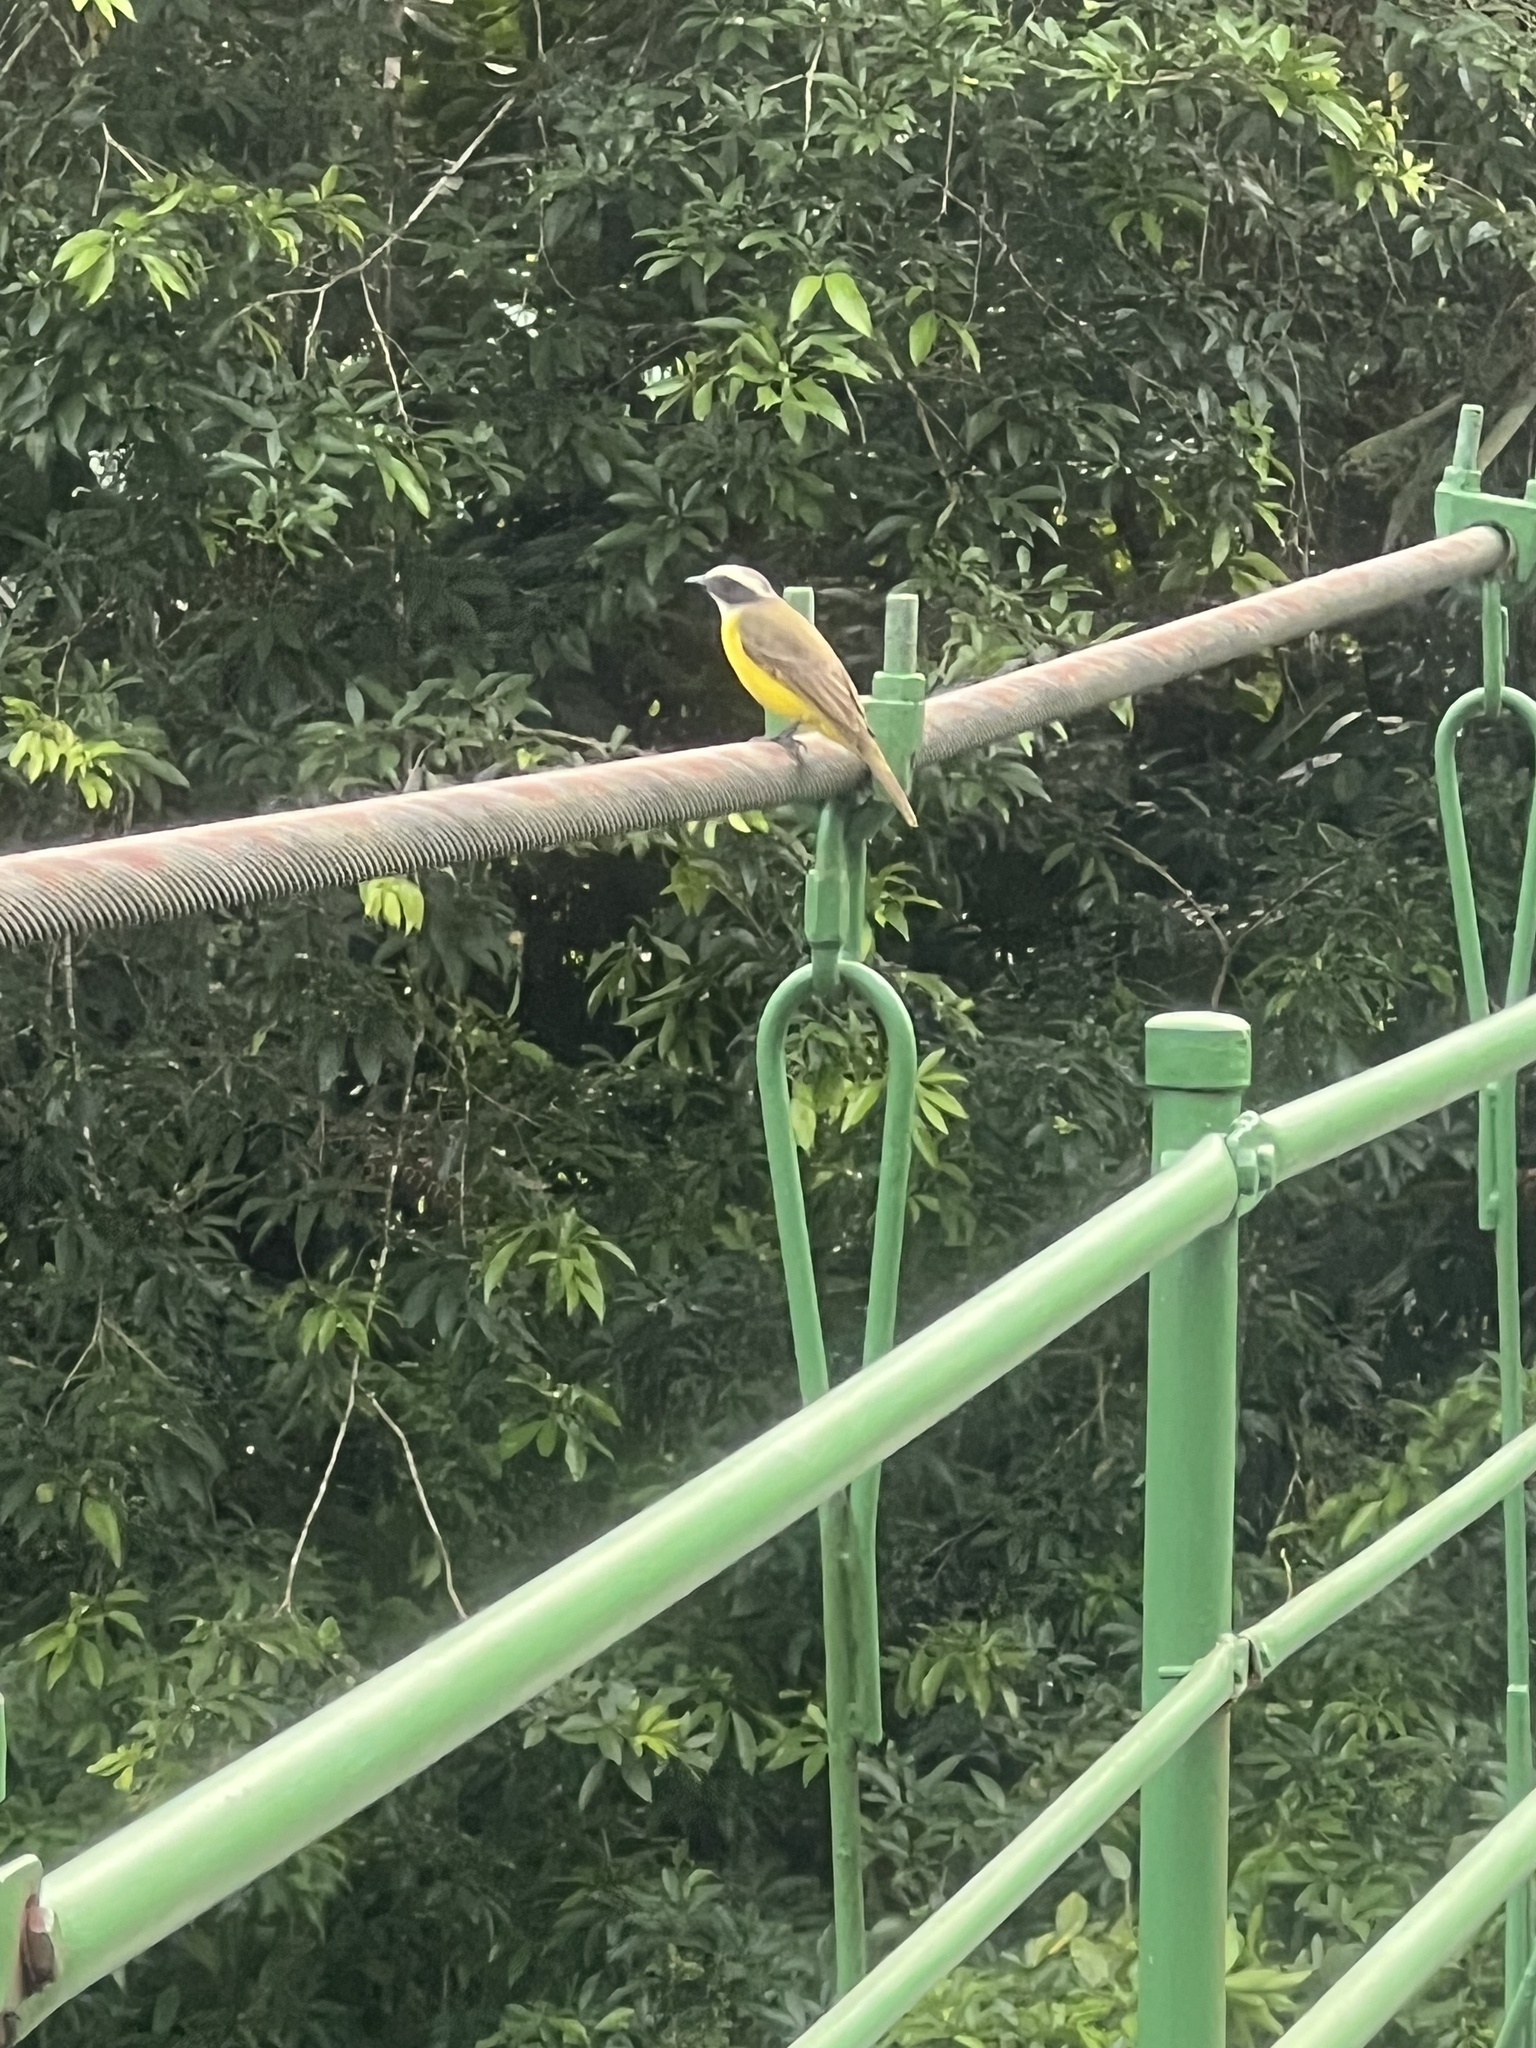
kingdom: Animalia
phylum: Chordata
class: Aves
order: Passeriformes
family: Tyrannidae
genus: Myiozetetes
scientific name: Myiozetetes similis
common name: Social flycatcher
